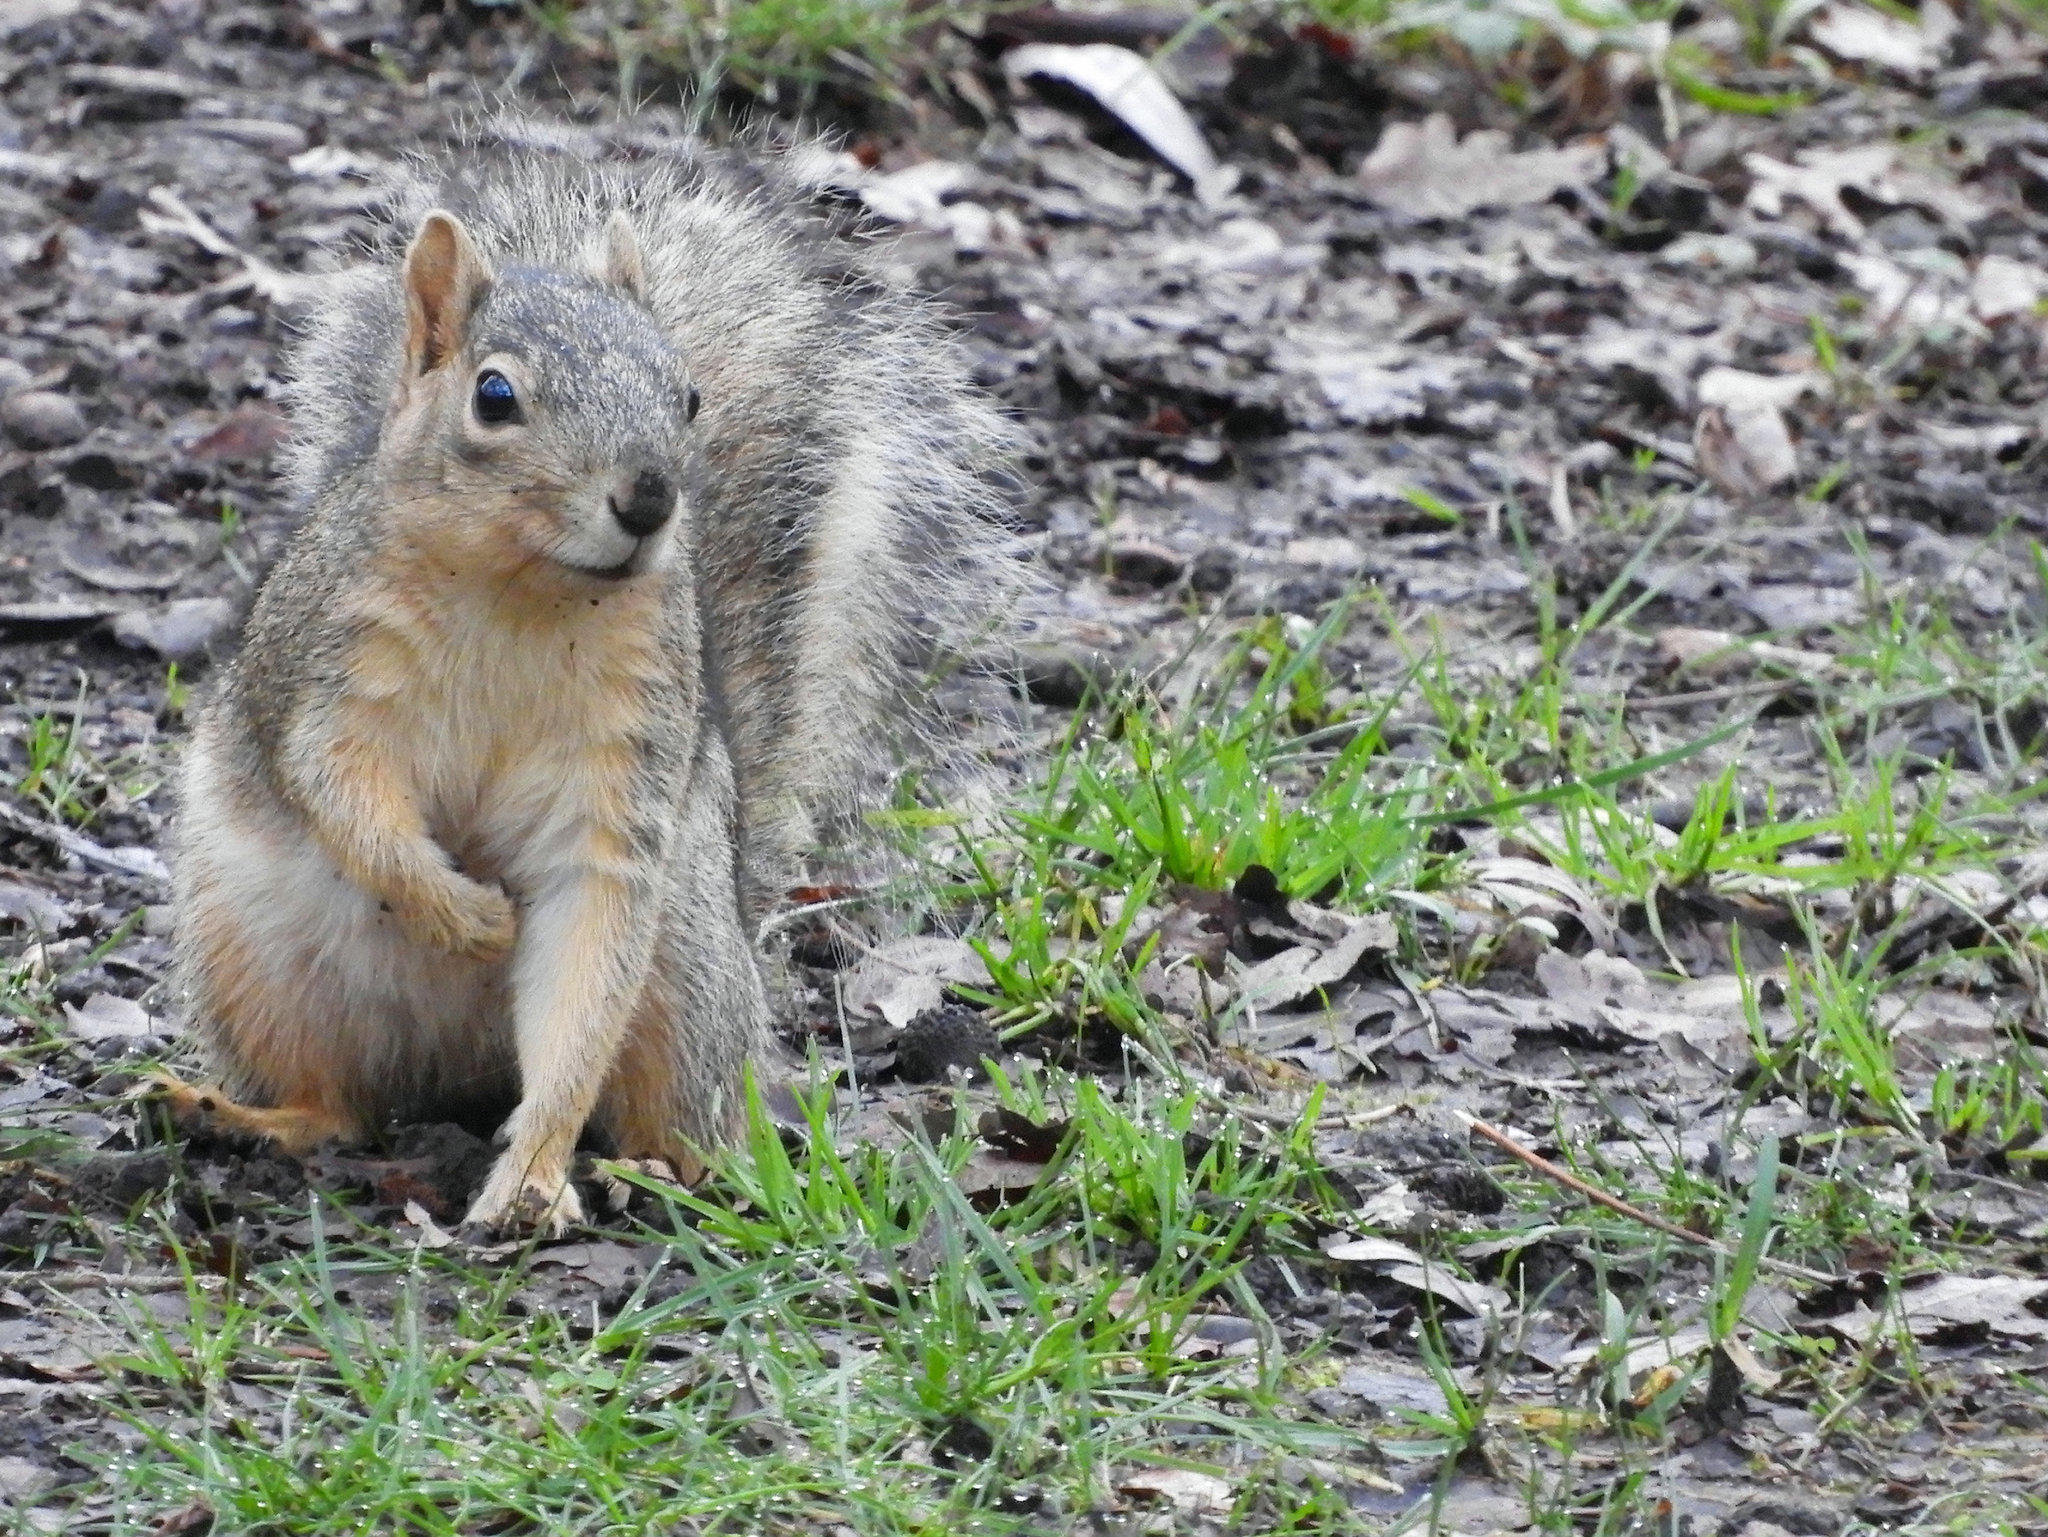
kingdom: Animalia
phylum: Chordata
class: Mammalia
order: Rodentia
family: Sciuridae
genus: Sciurus
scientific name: Sciurus niger
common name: Fox squirrel
